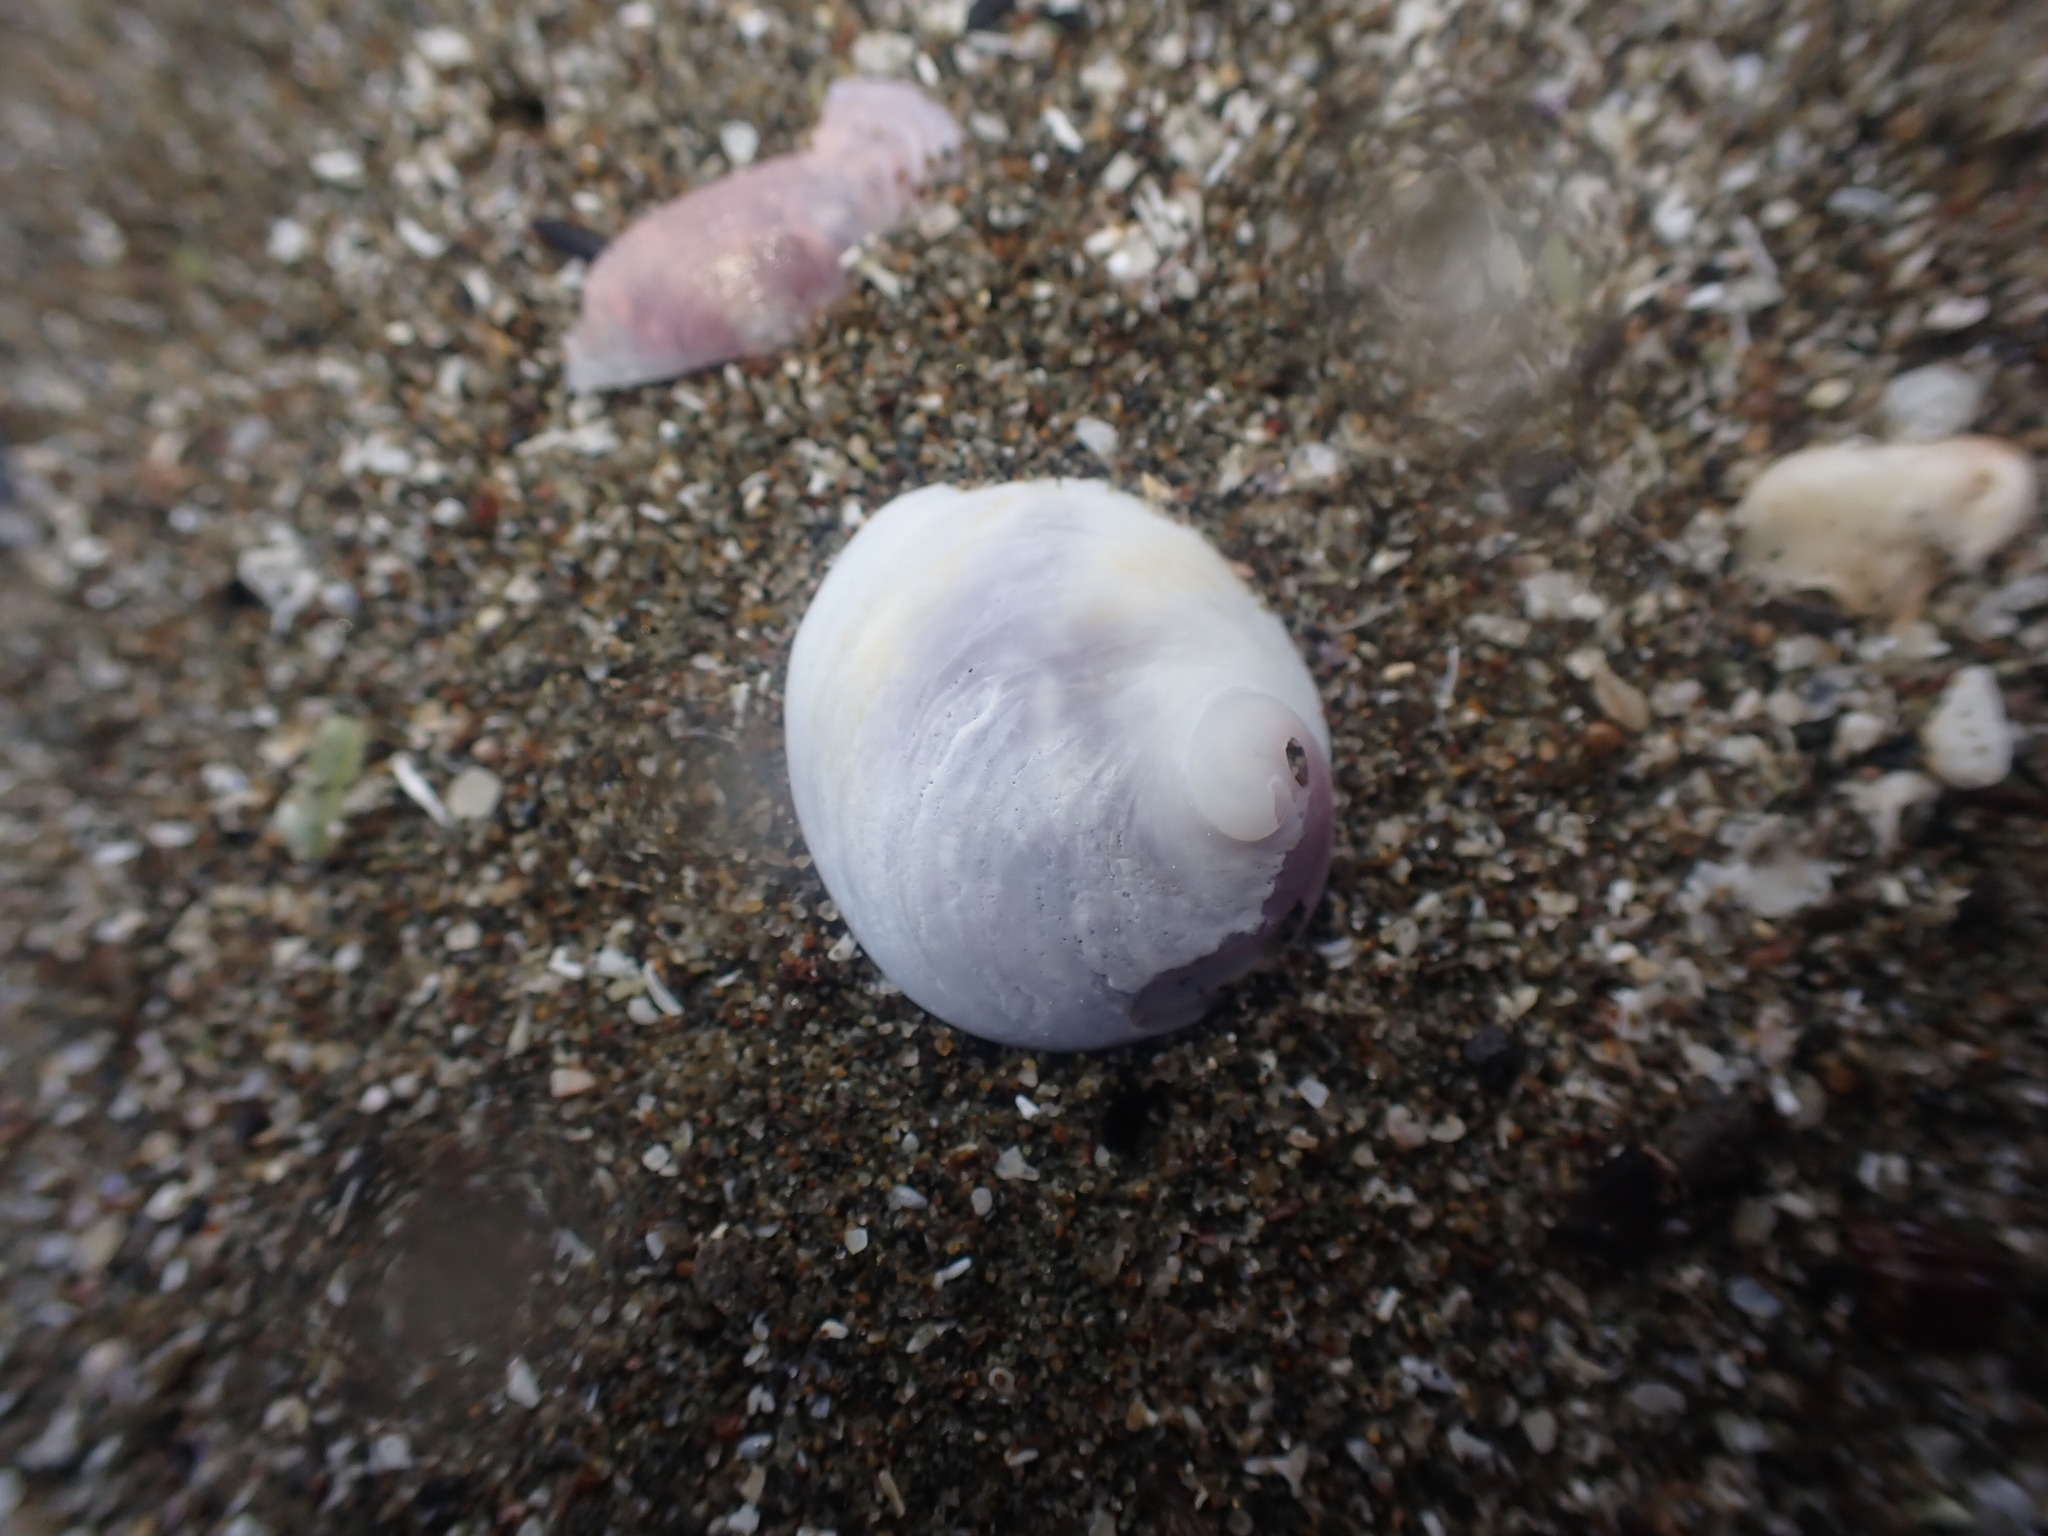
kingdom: Animalia
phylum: Mollusca
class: Gastropoda
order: Littorinimorpha
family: Calyptraeidae
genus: Sigapatella
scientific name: Sigapatella novaezelandiae
